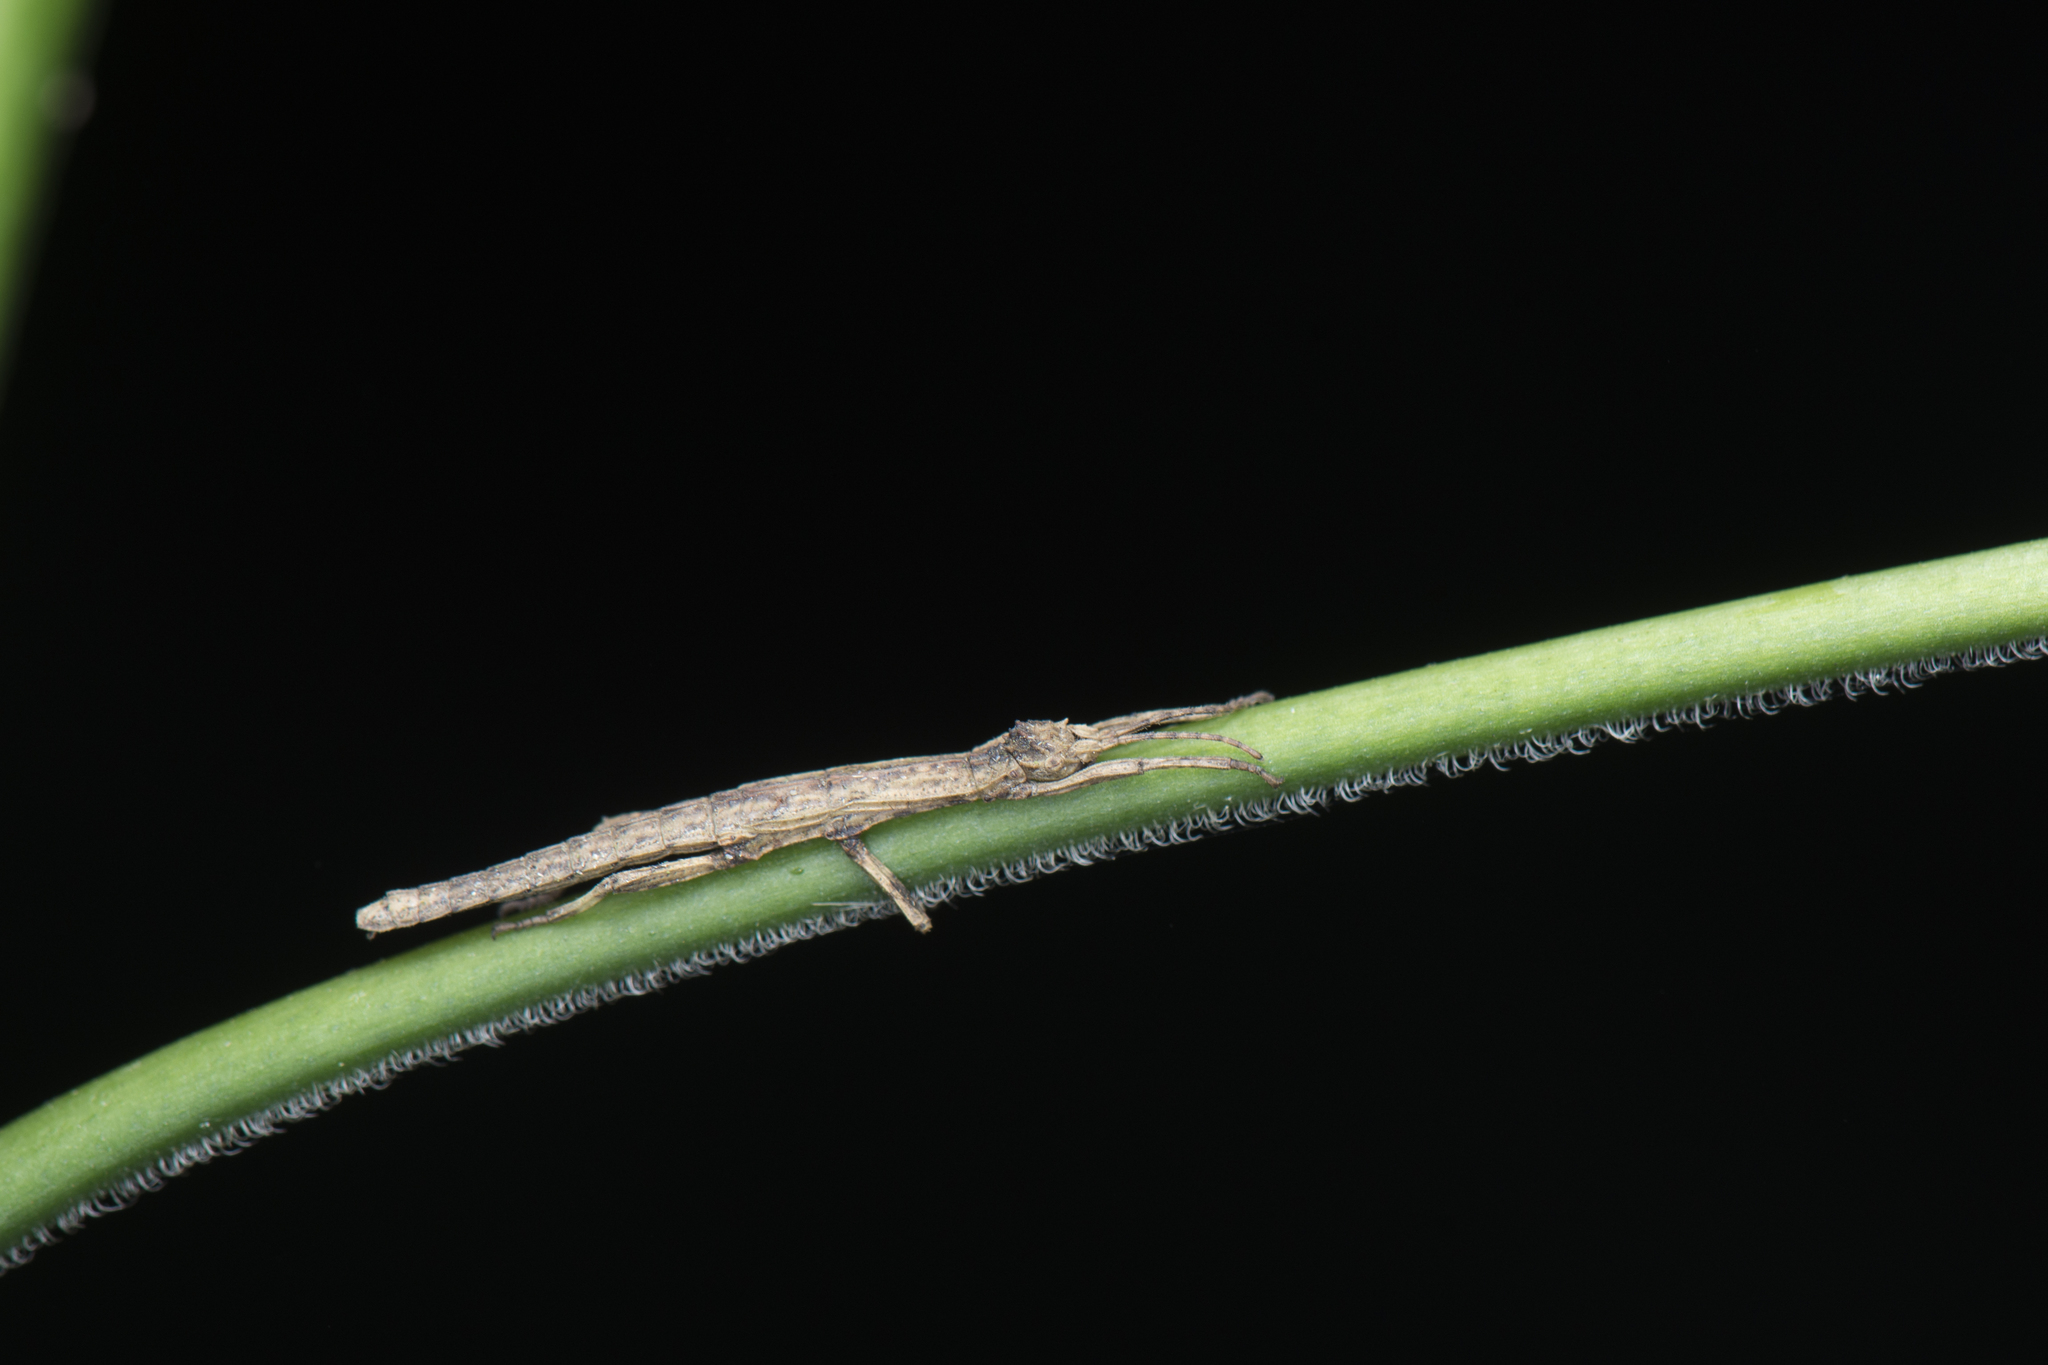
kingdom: Animalia
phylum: Arthropoda
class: Insecta
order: Phasmida
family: Heteropterygidae
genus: Orestes
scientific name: Orestes shirakii
